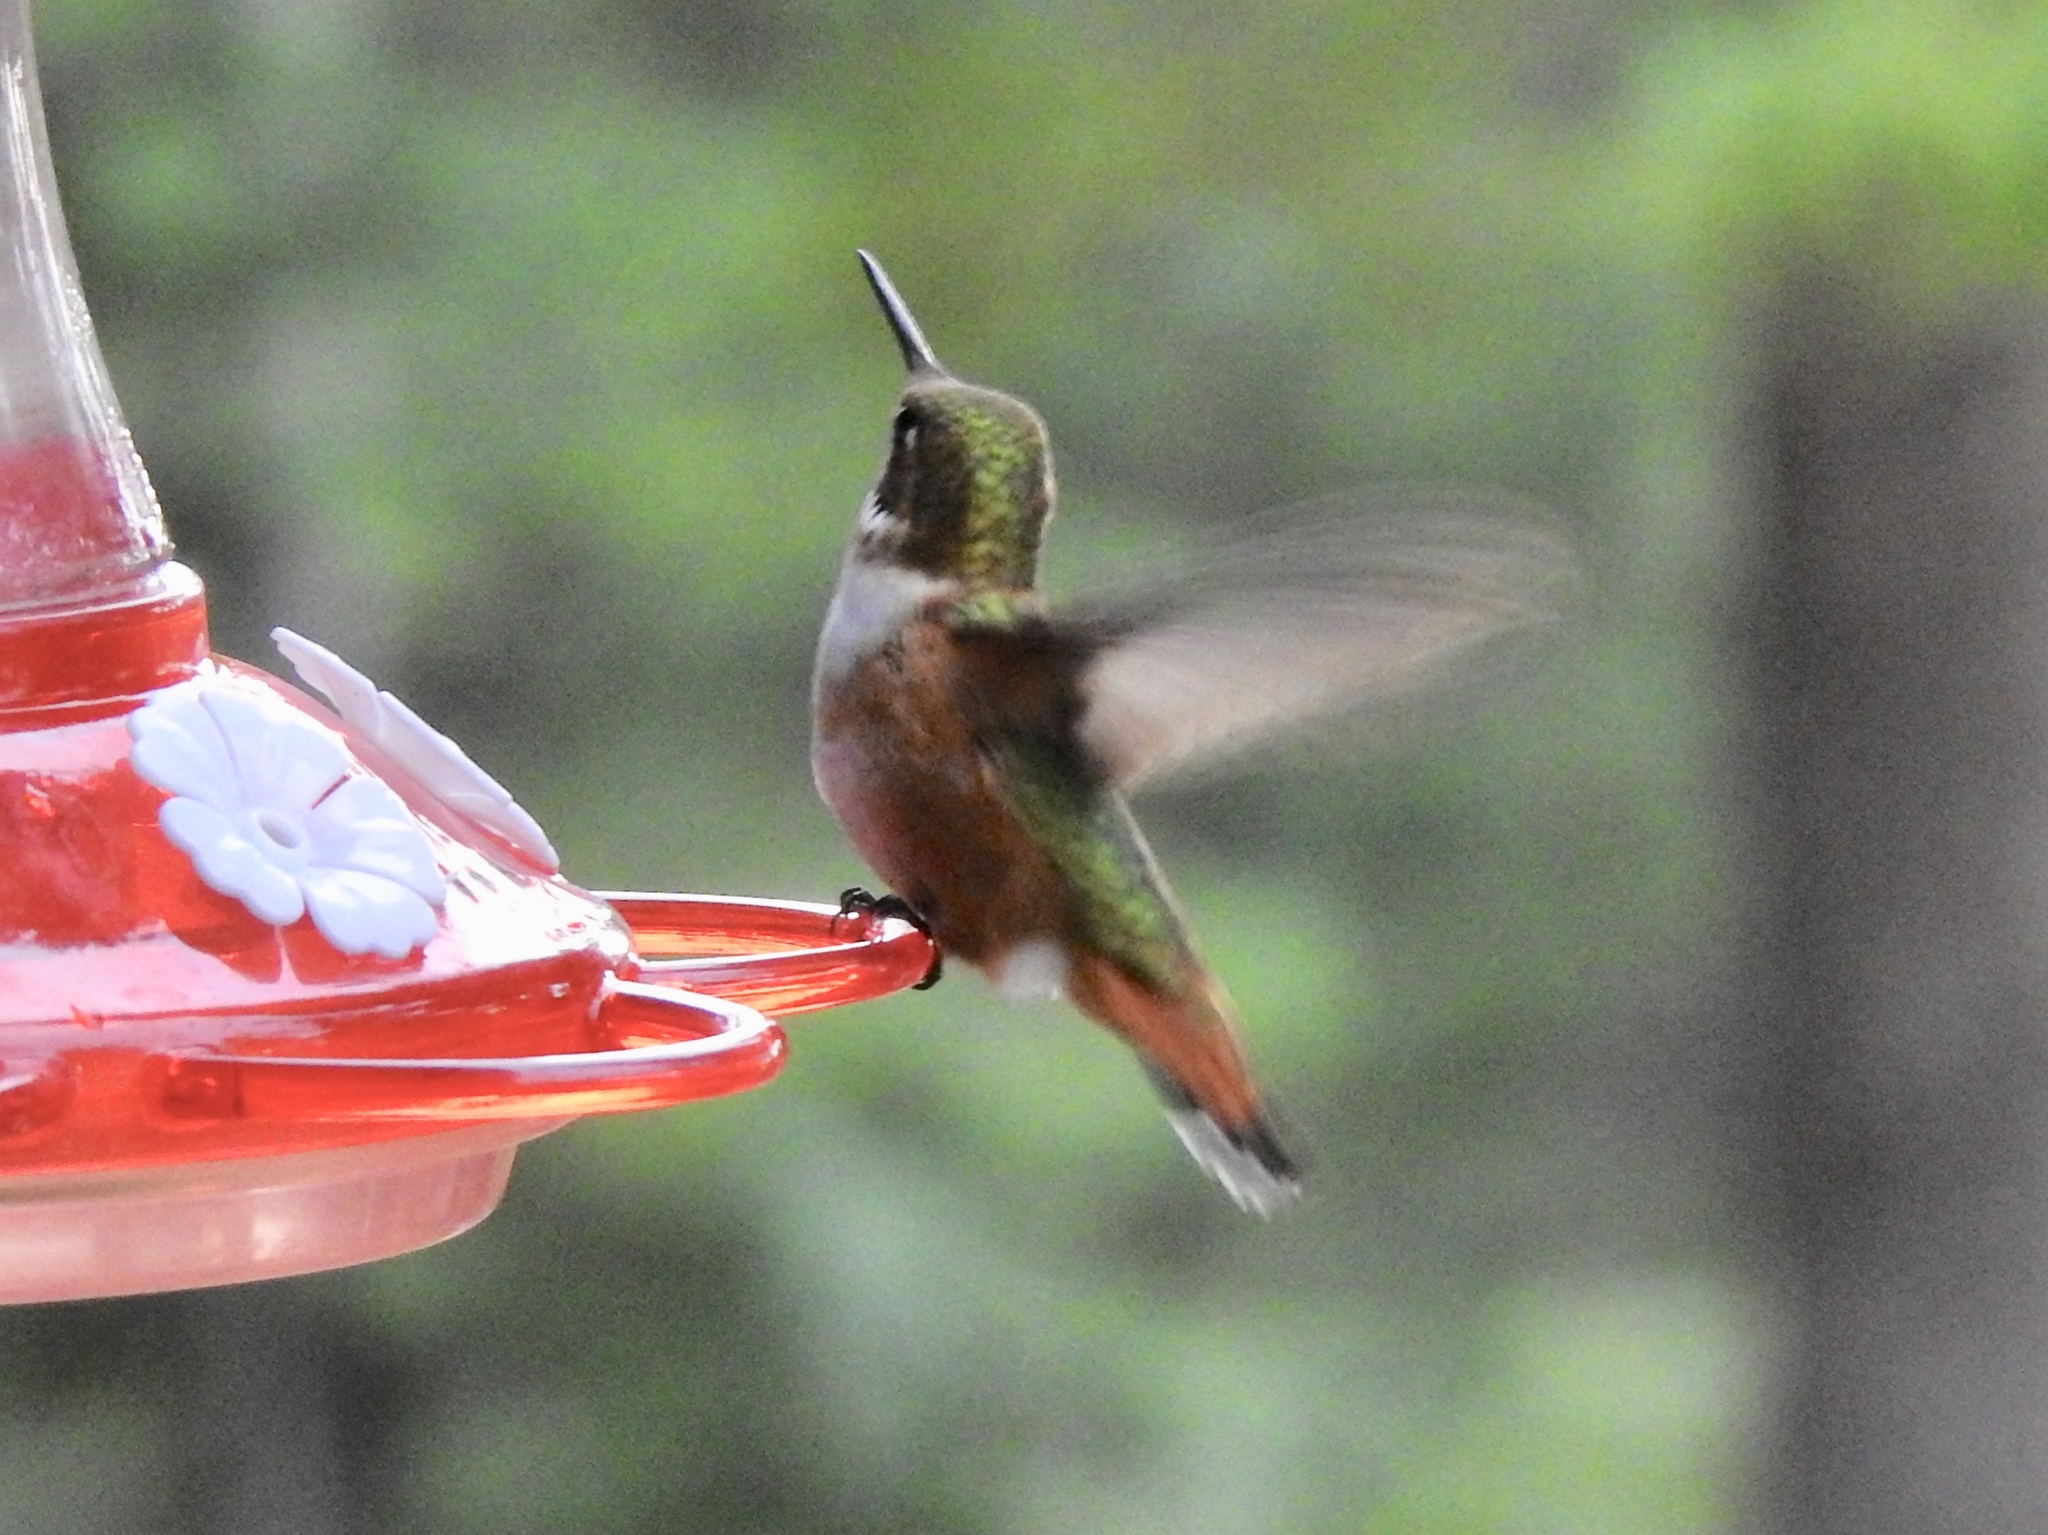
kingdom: Animalia
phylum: Chordata
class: Aves
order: Apodiformes
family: Trochilidae
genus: Selasphorus
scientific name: Selasphorus rufus
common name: Rufous hummingbird
